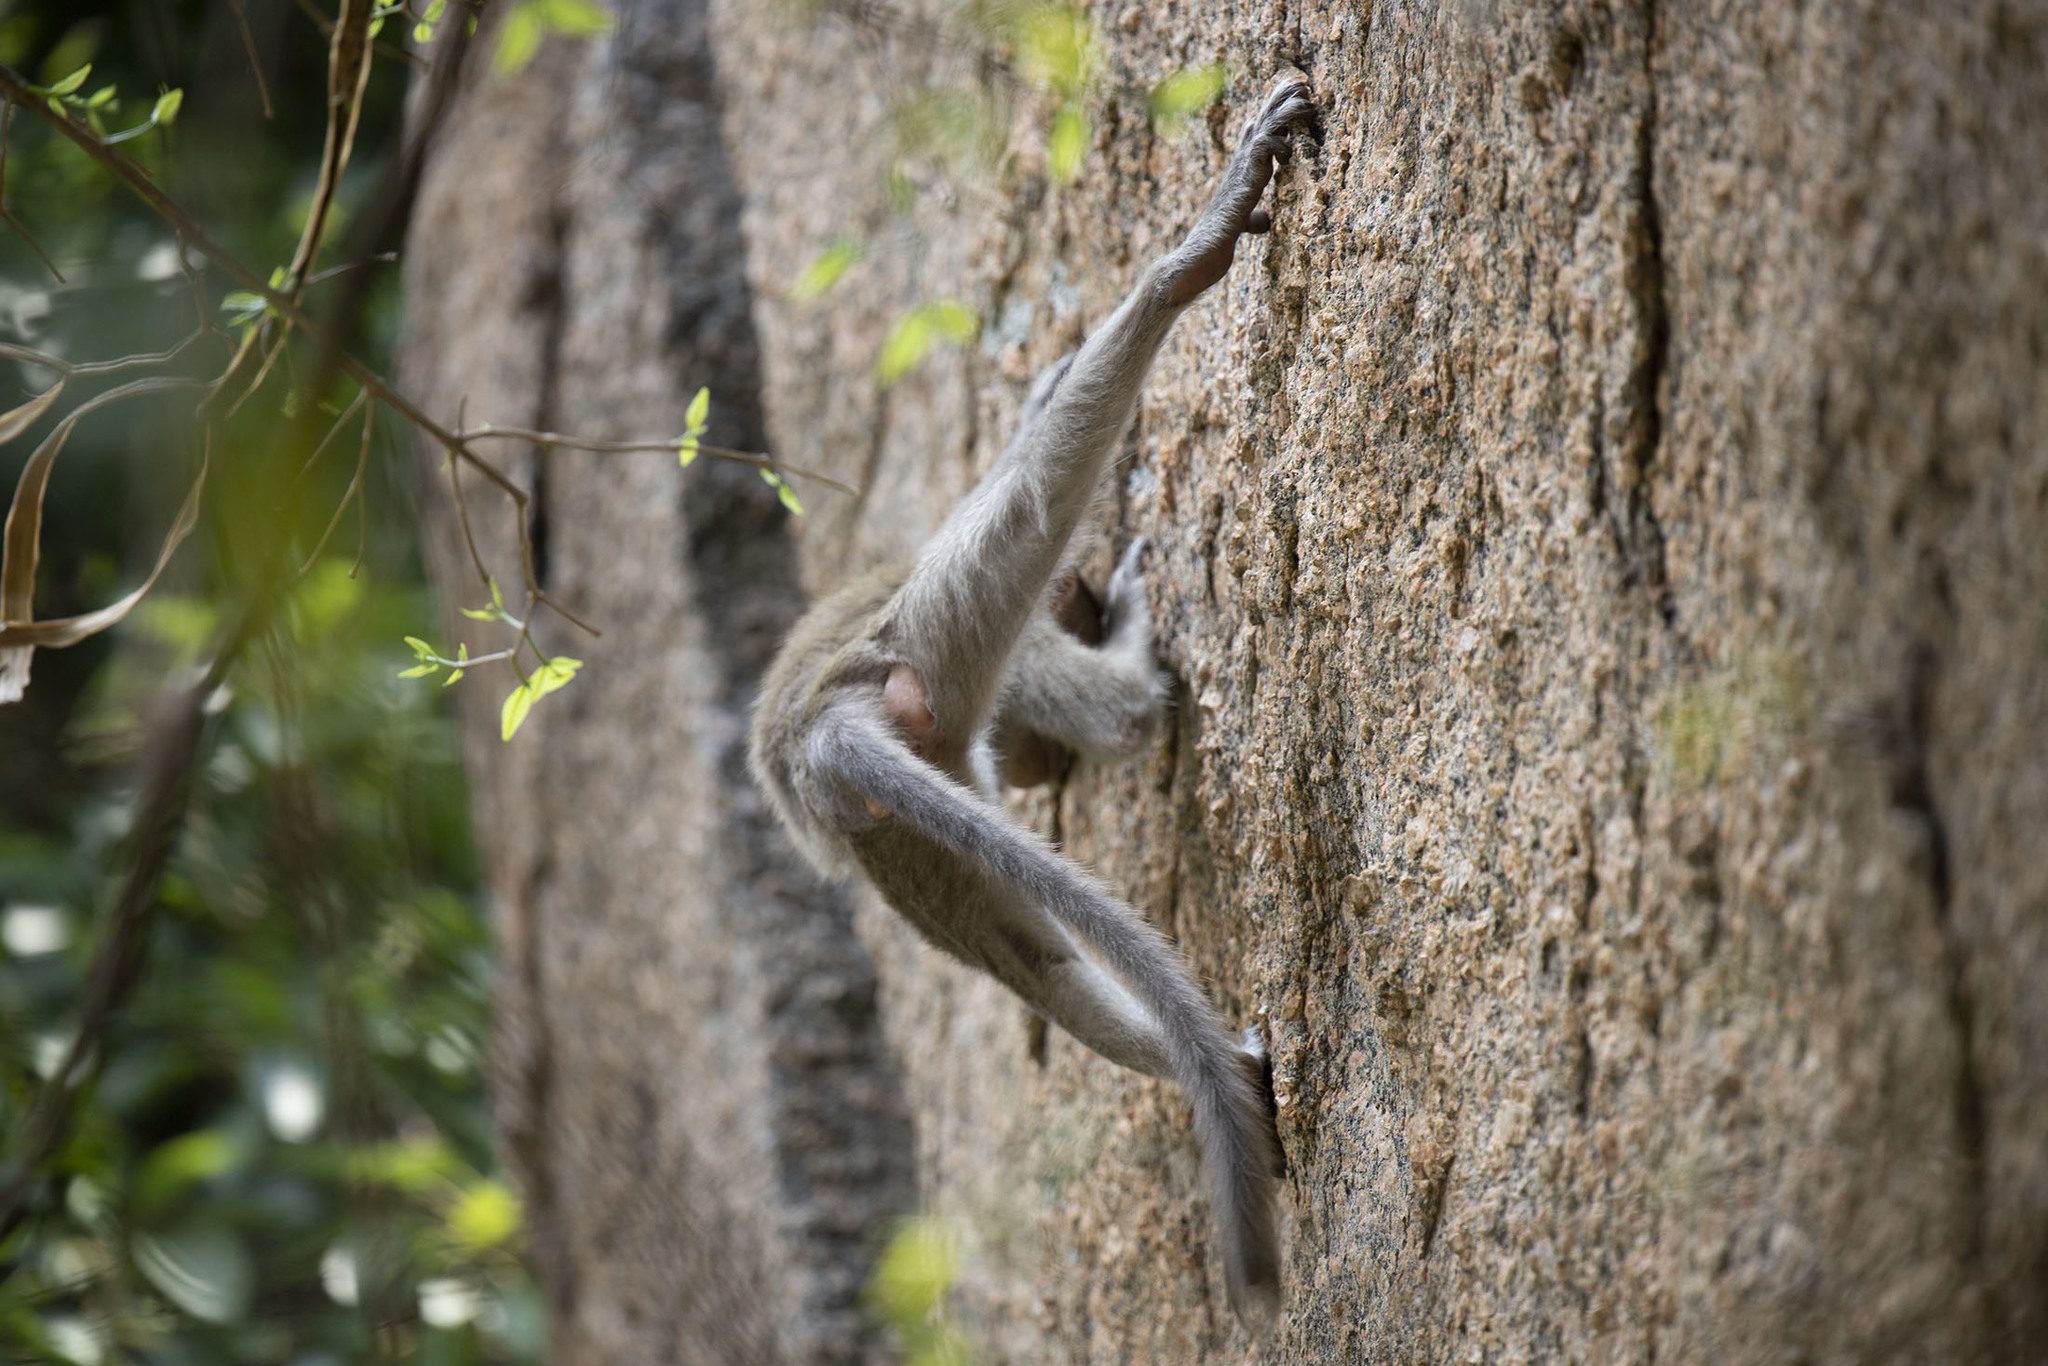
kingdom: Animalia
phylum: Chordata
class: Mammalia
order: Primates
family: Cercopithecidae
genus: Macaca
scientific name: Macaca radiata
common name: Bonnet macaque
